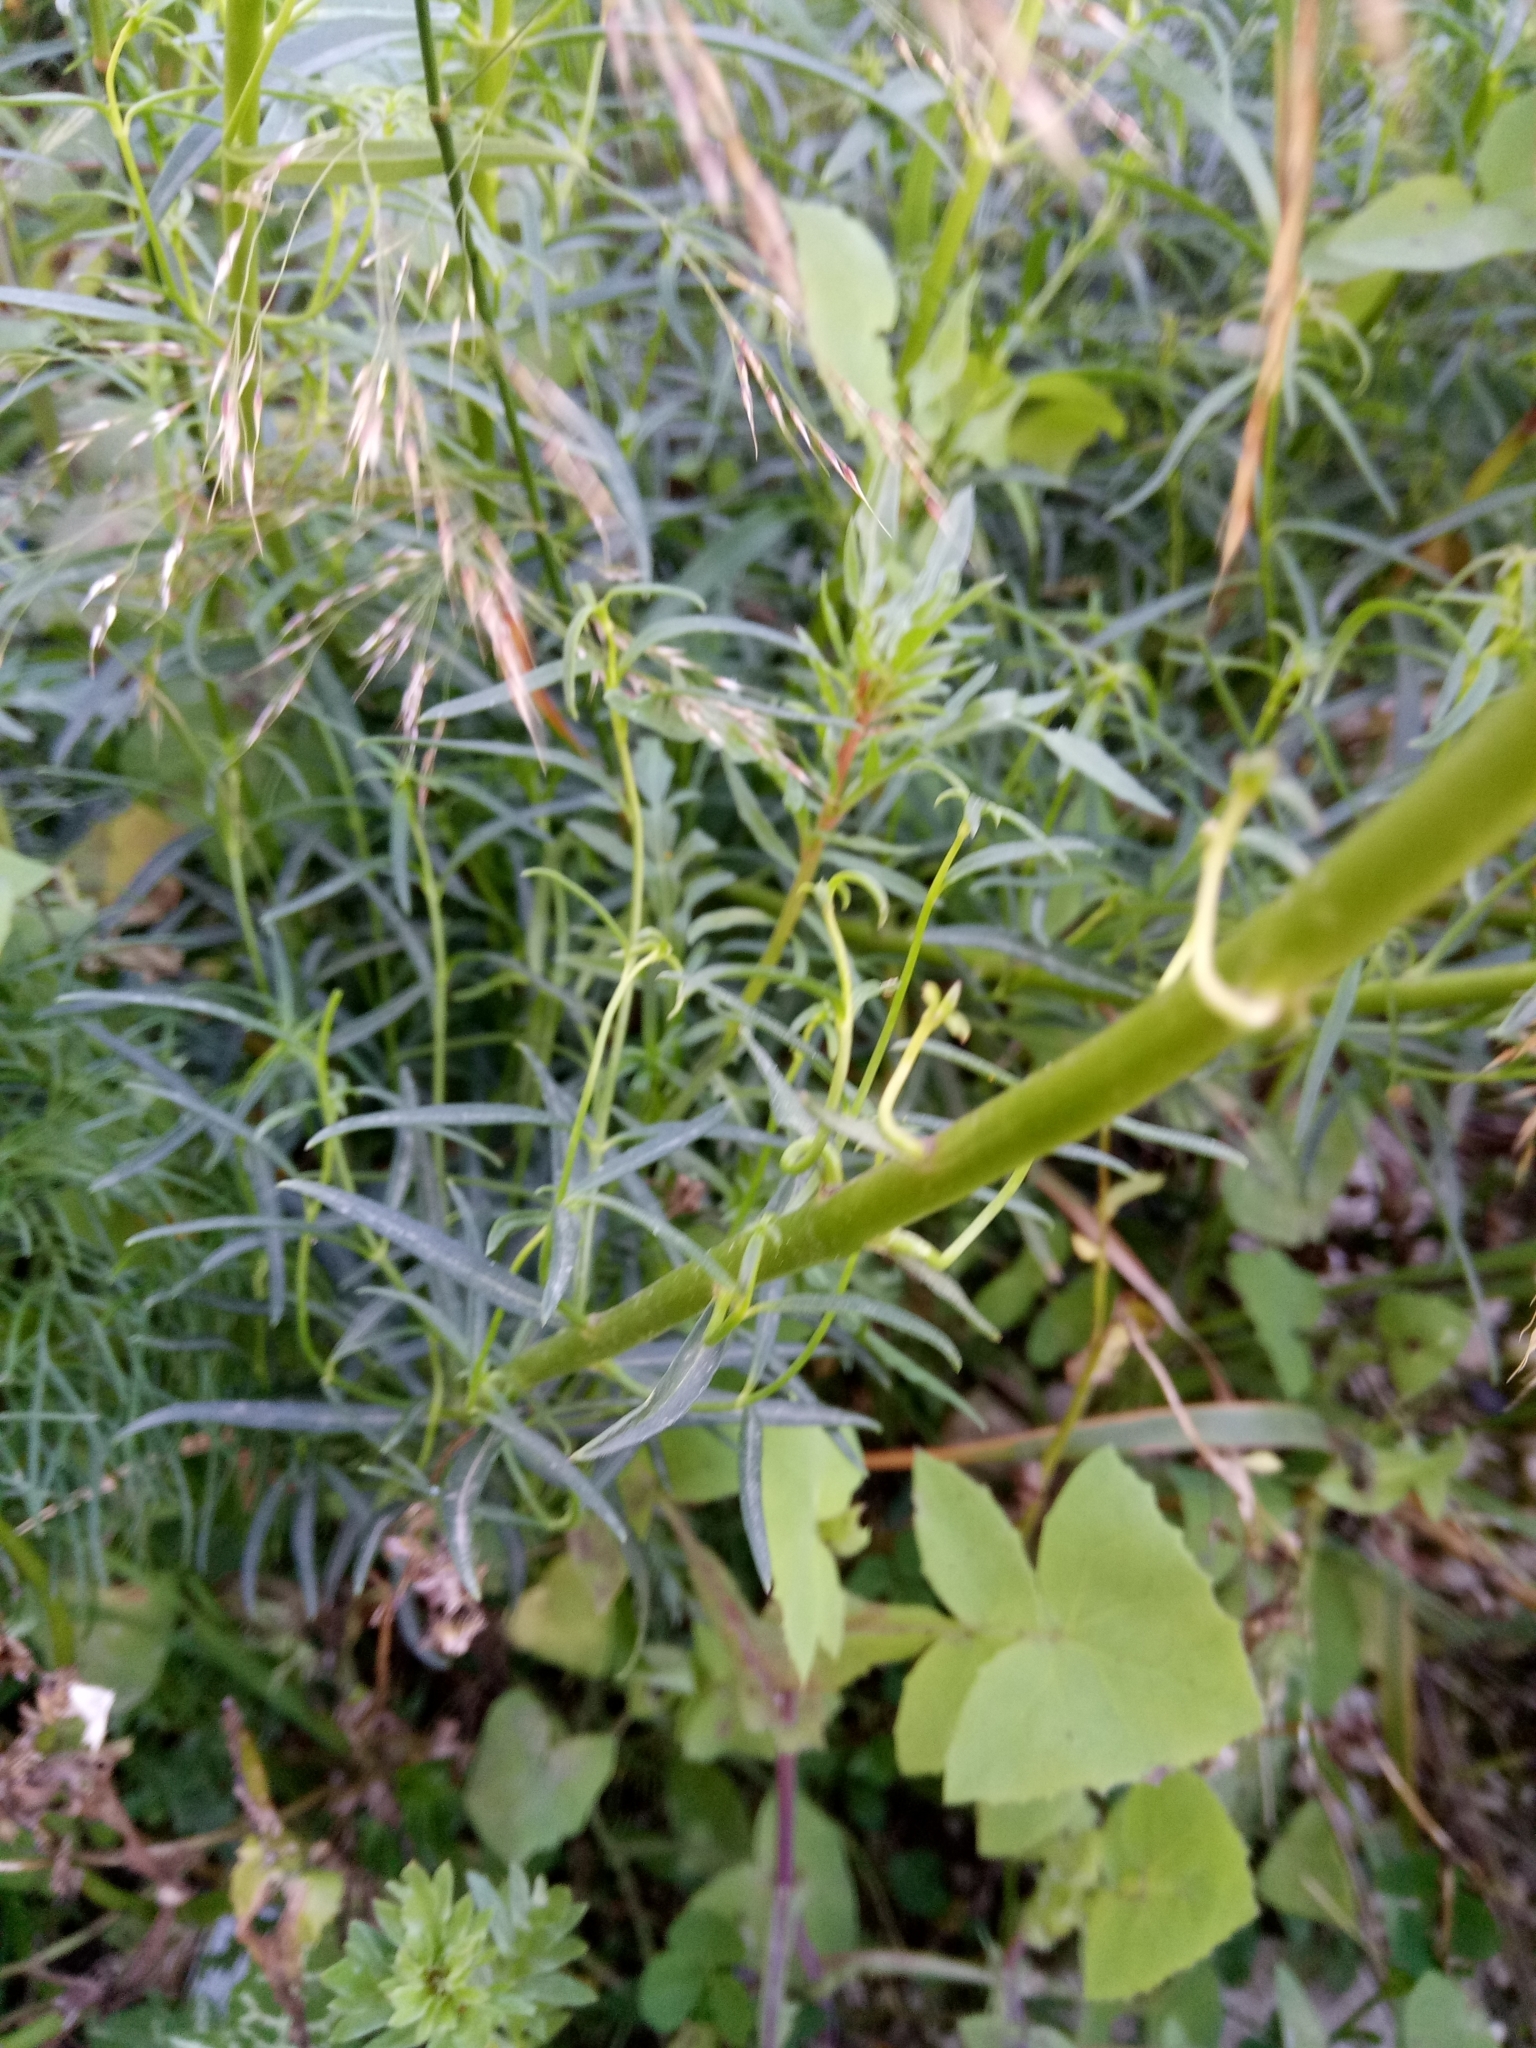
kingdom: Plantae
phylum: Tracheophyta
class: Magnoliopsida
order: Lamiales
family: Plantaginaceae
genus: Antirrhinum
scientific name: Antirrhinum tortuosum
